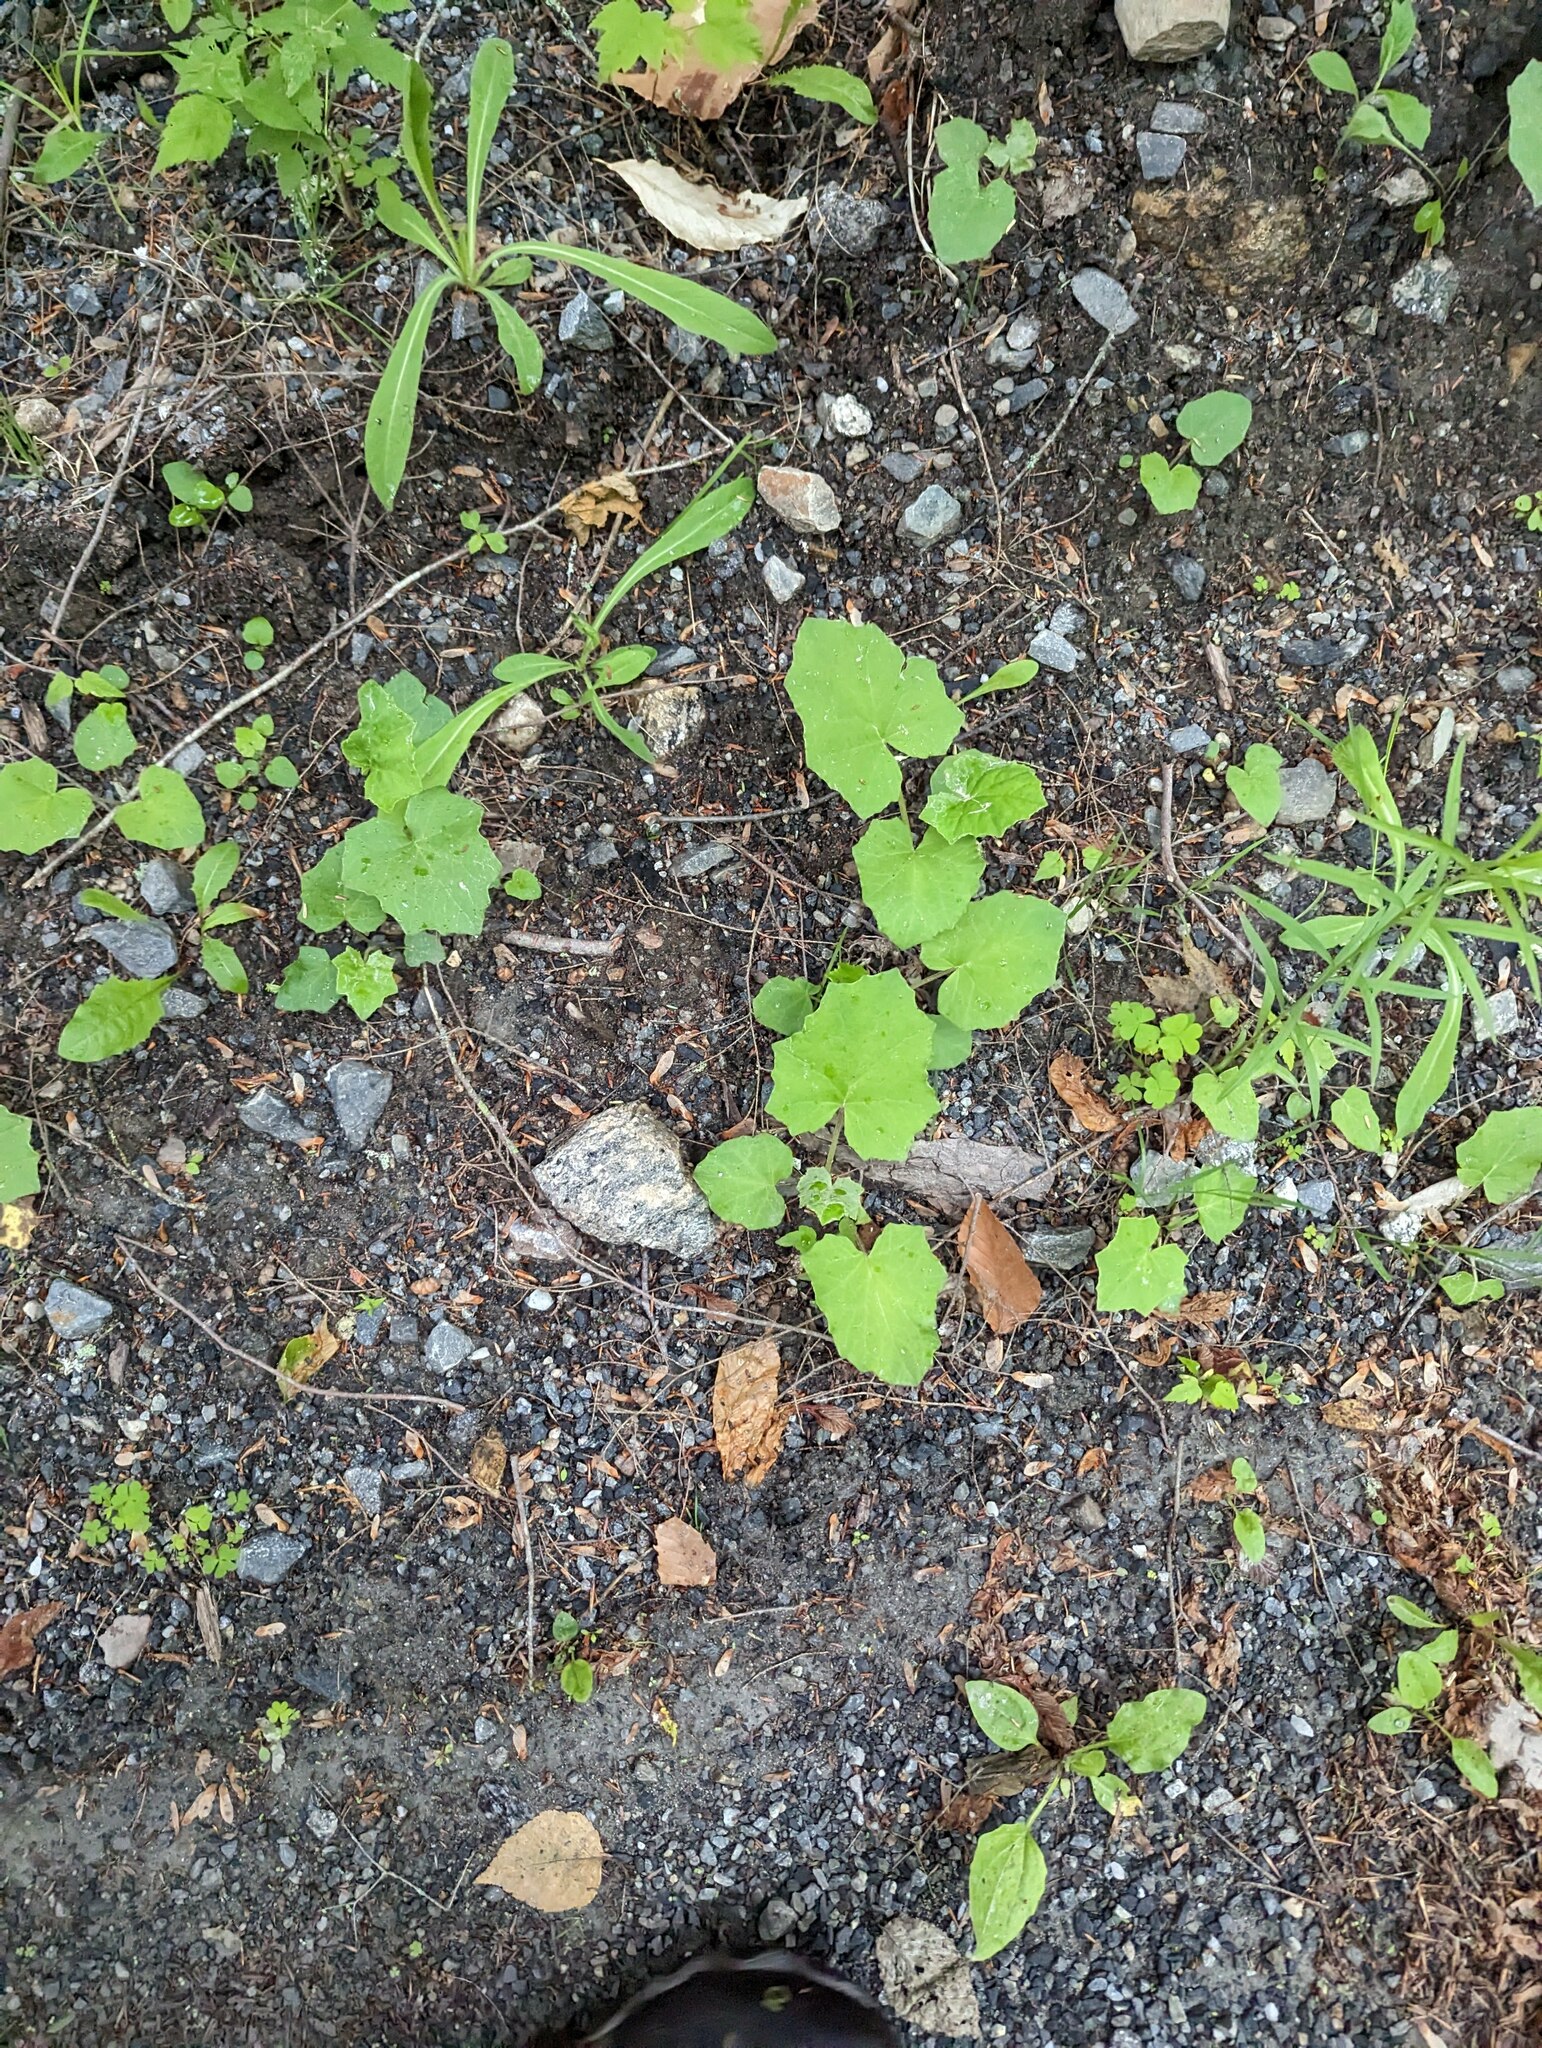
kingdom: Plantae
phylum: Tracheophyta
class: Magnoliopsida
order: Asterales
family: Asteraceae
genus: Tussilago
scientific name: Tussilago farfara
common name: Coltsfoot
